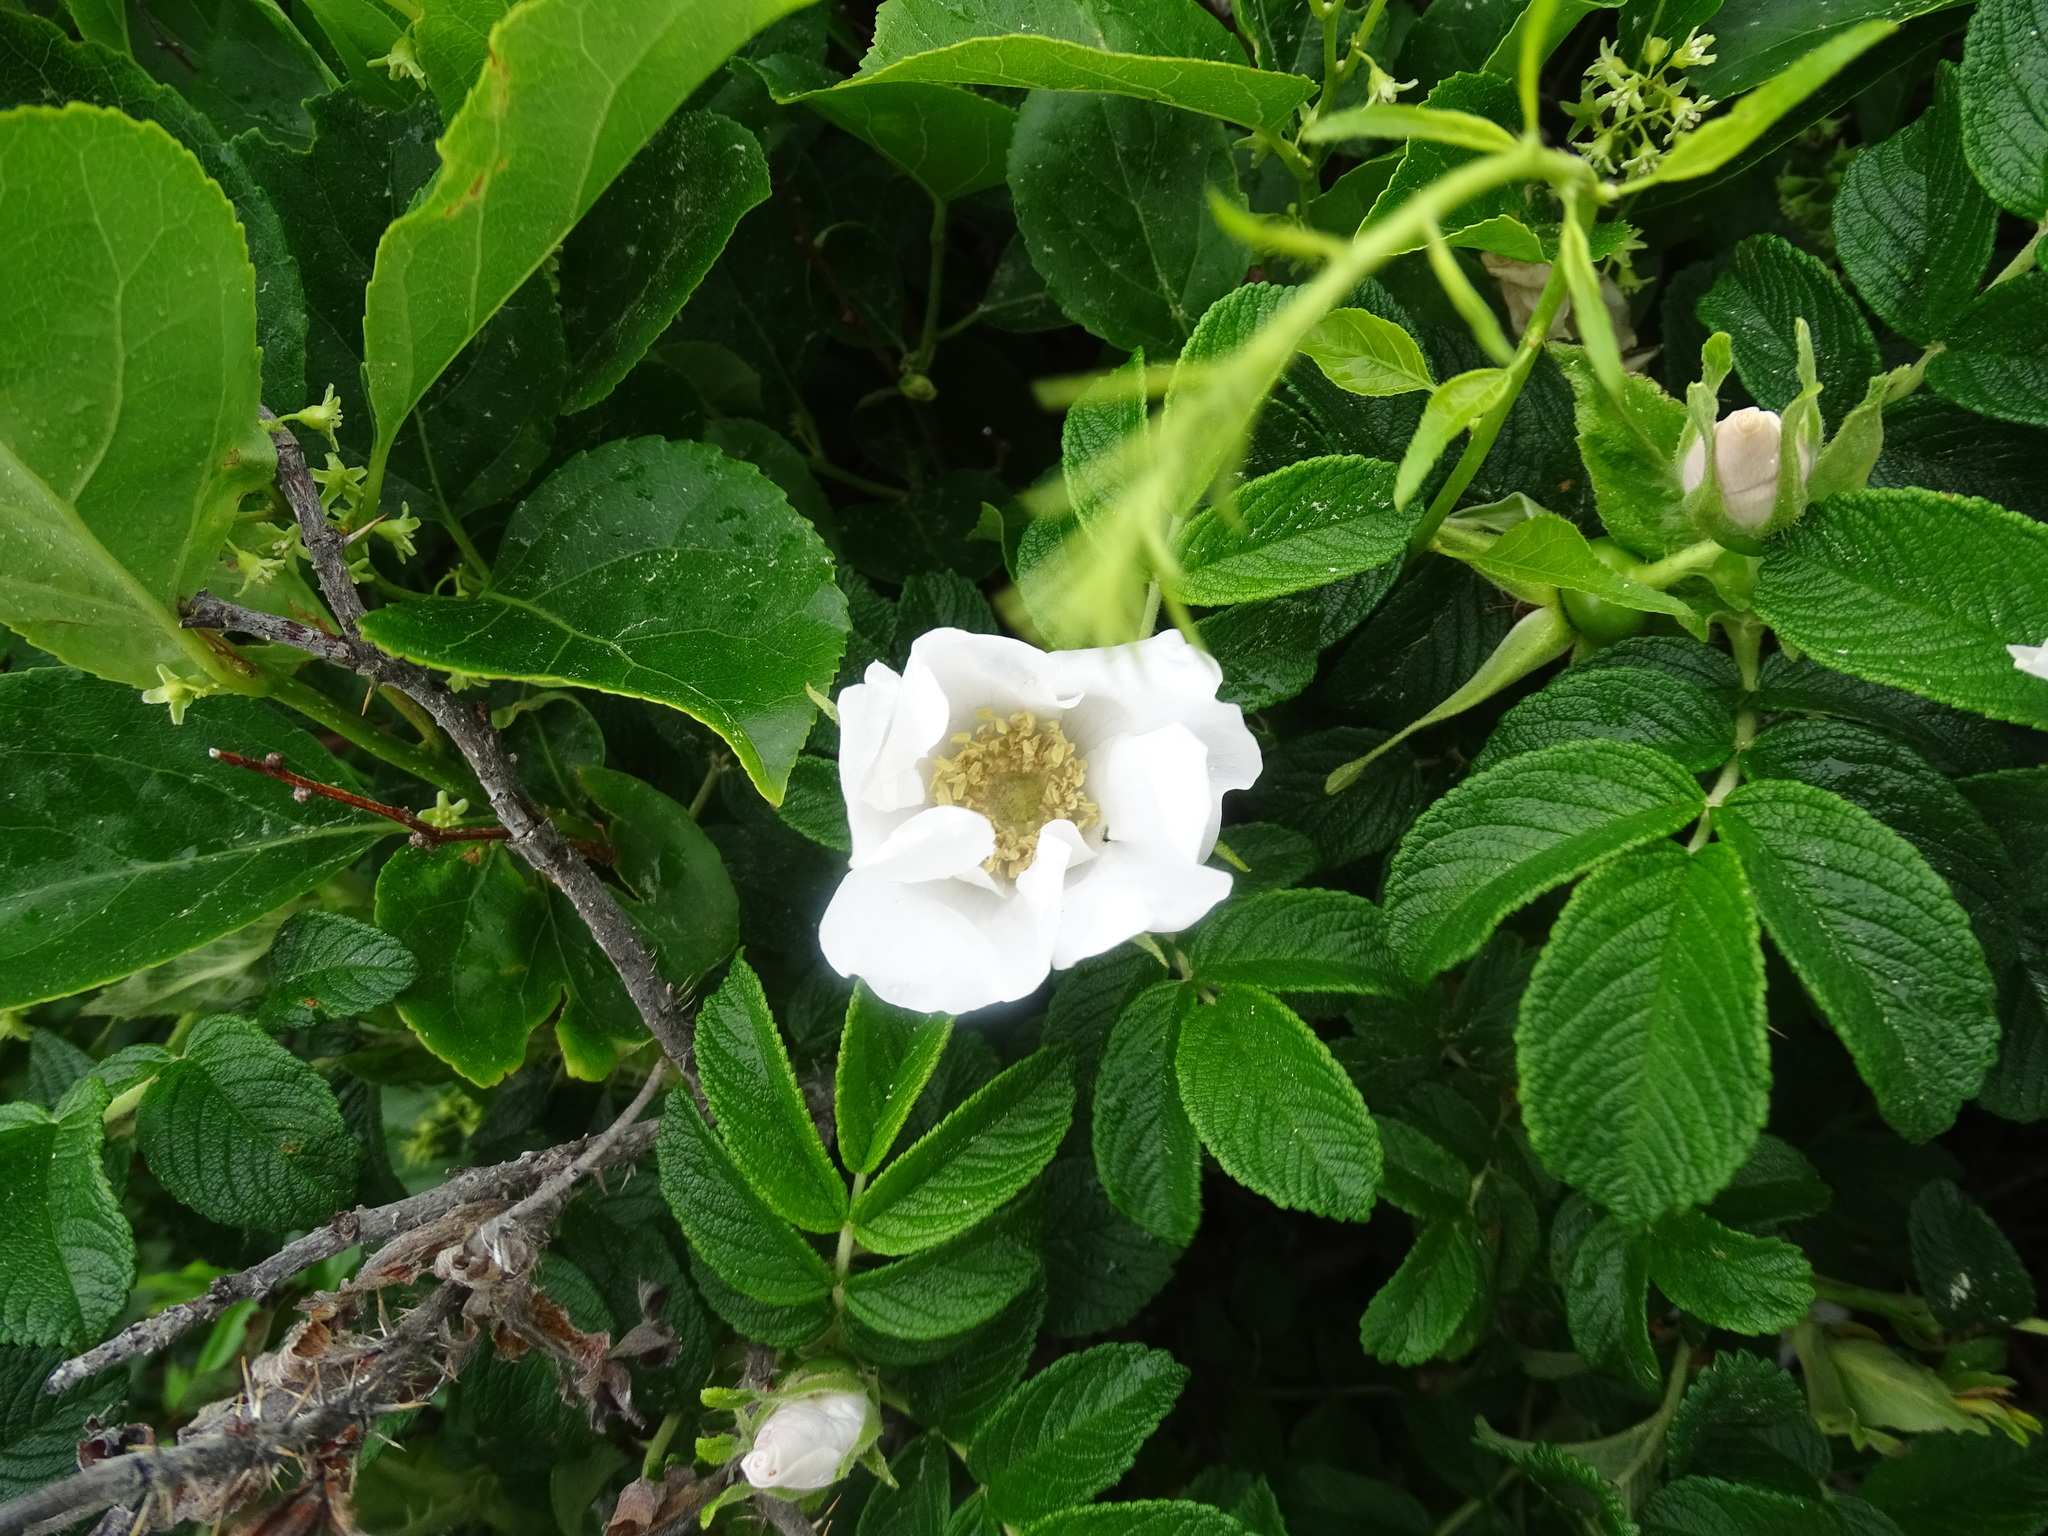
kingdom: Plantae
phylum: Tracheophyta
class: Magnoliopsida
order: Rosales
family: Rosaceae
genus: Rosa
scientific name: Rosa rugosa
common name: Japanese rose
